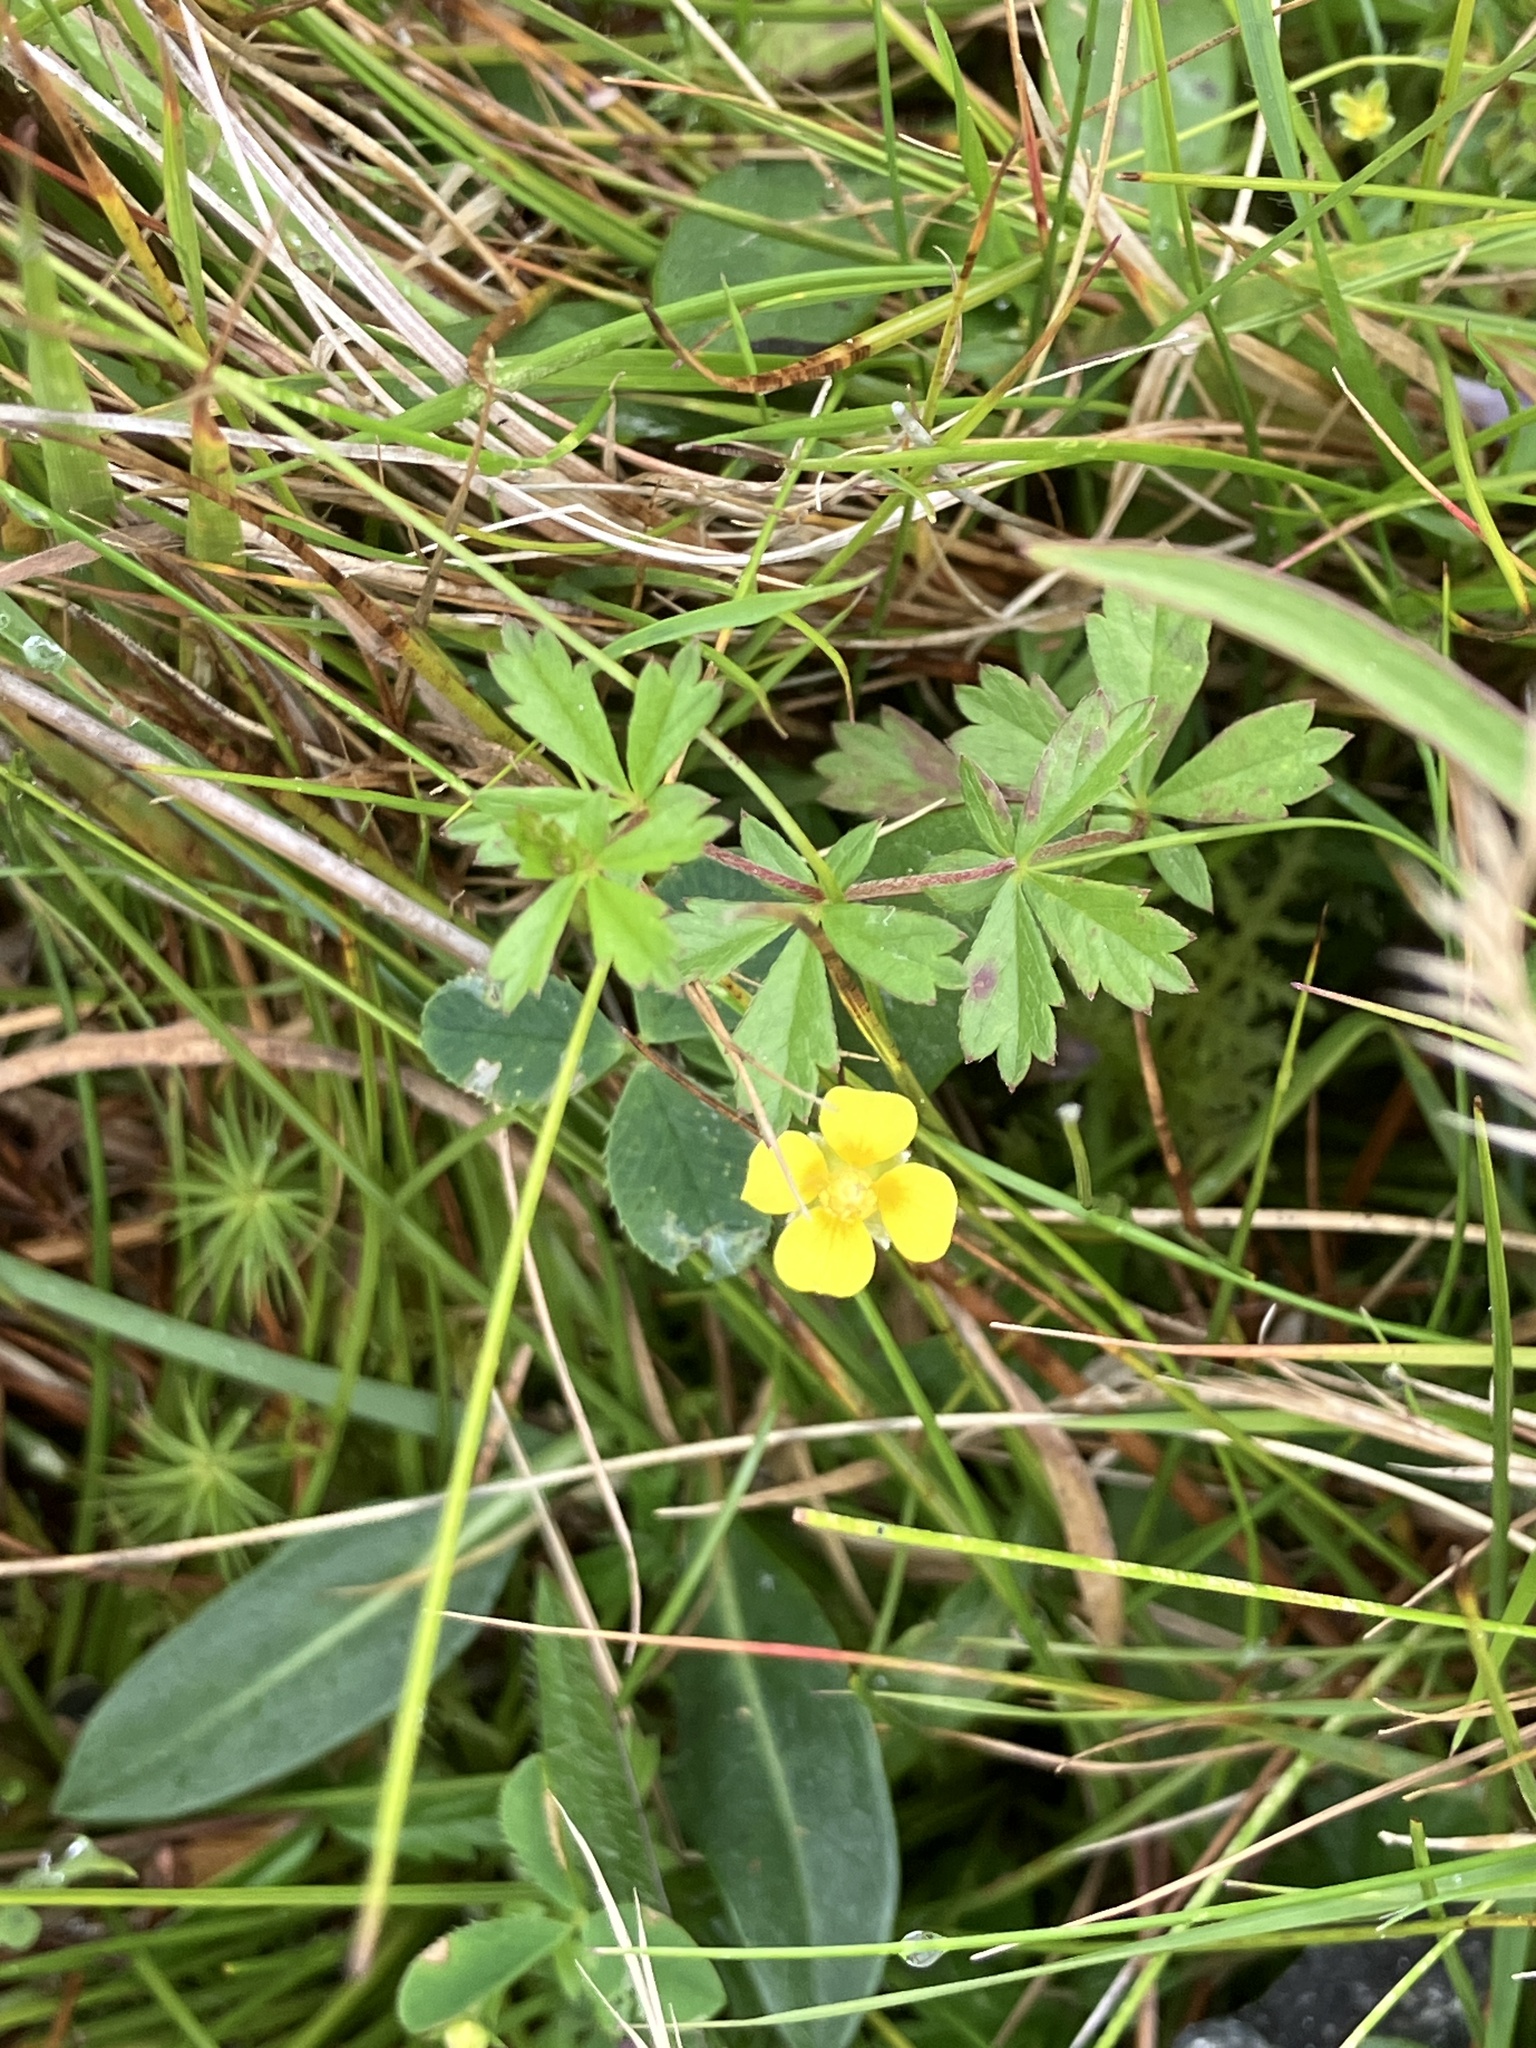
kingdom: Plantae
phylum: Tracheophyta
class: Magnoliopsida
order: Rosales
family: Rosaceae
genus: Potentilla
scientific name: Potentilla erecta
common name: Tormentil
